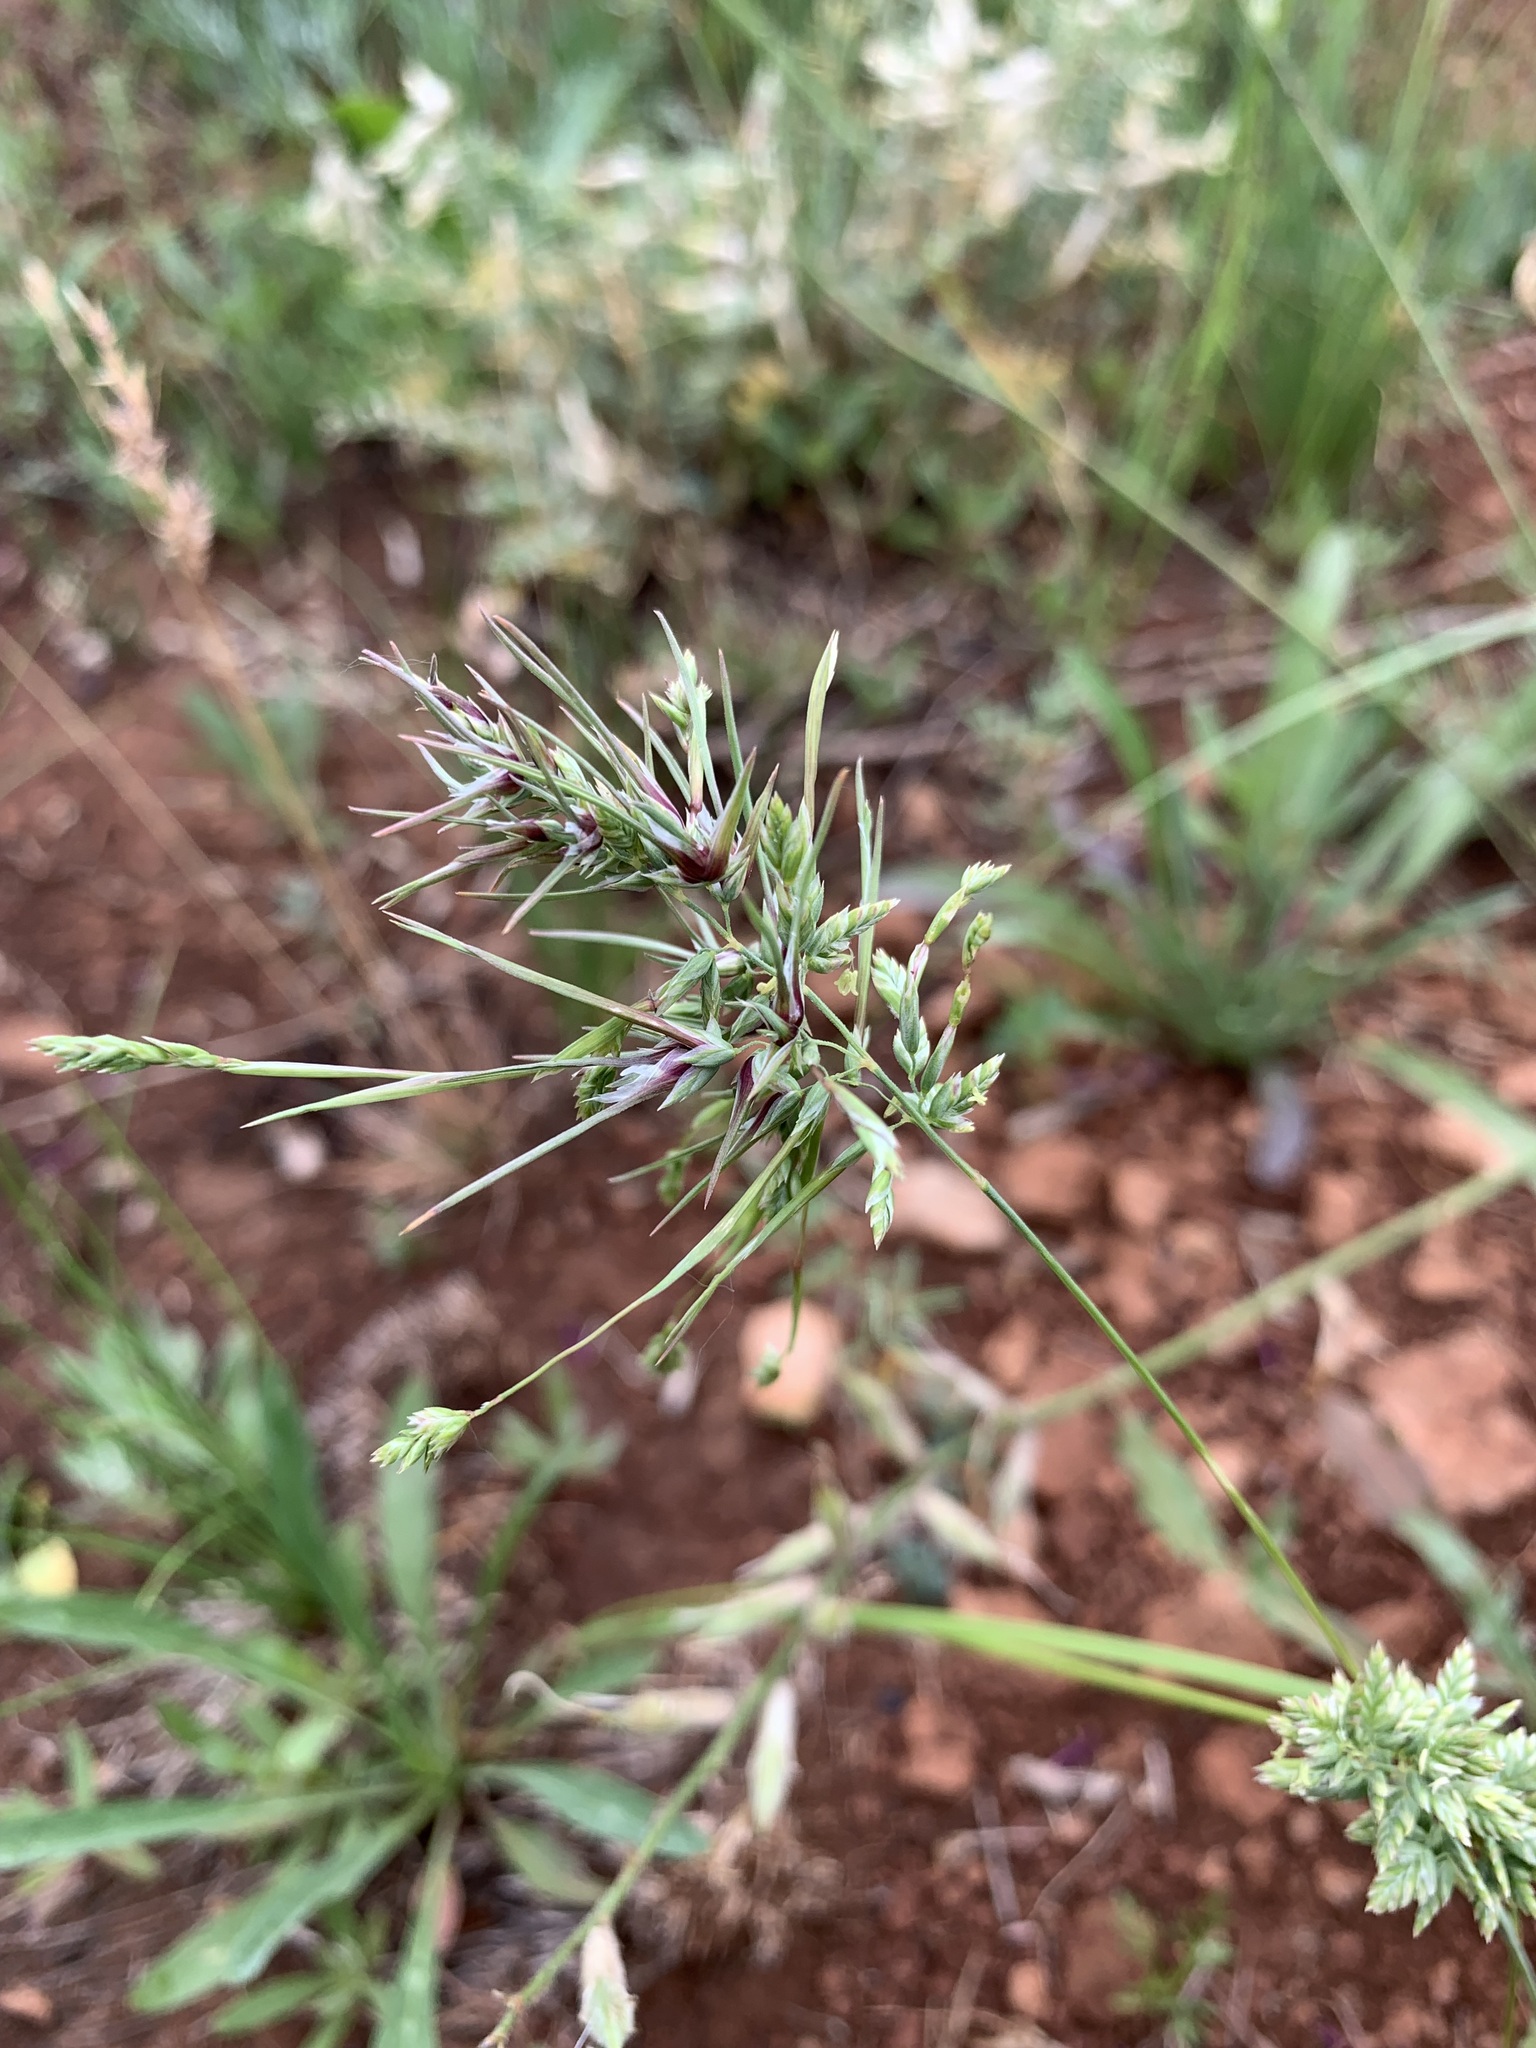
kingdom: Plantae
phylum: Tracheophyta
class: Liliopsida
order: Poales
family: Poaceae
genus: Poa
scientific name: Poa bulbosa
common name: Bulbous bluegrass
